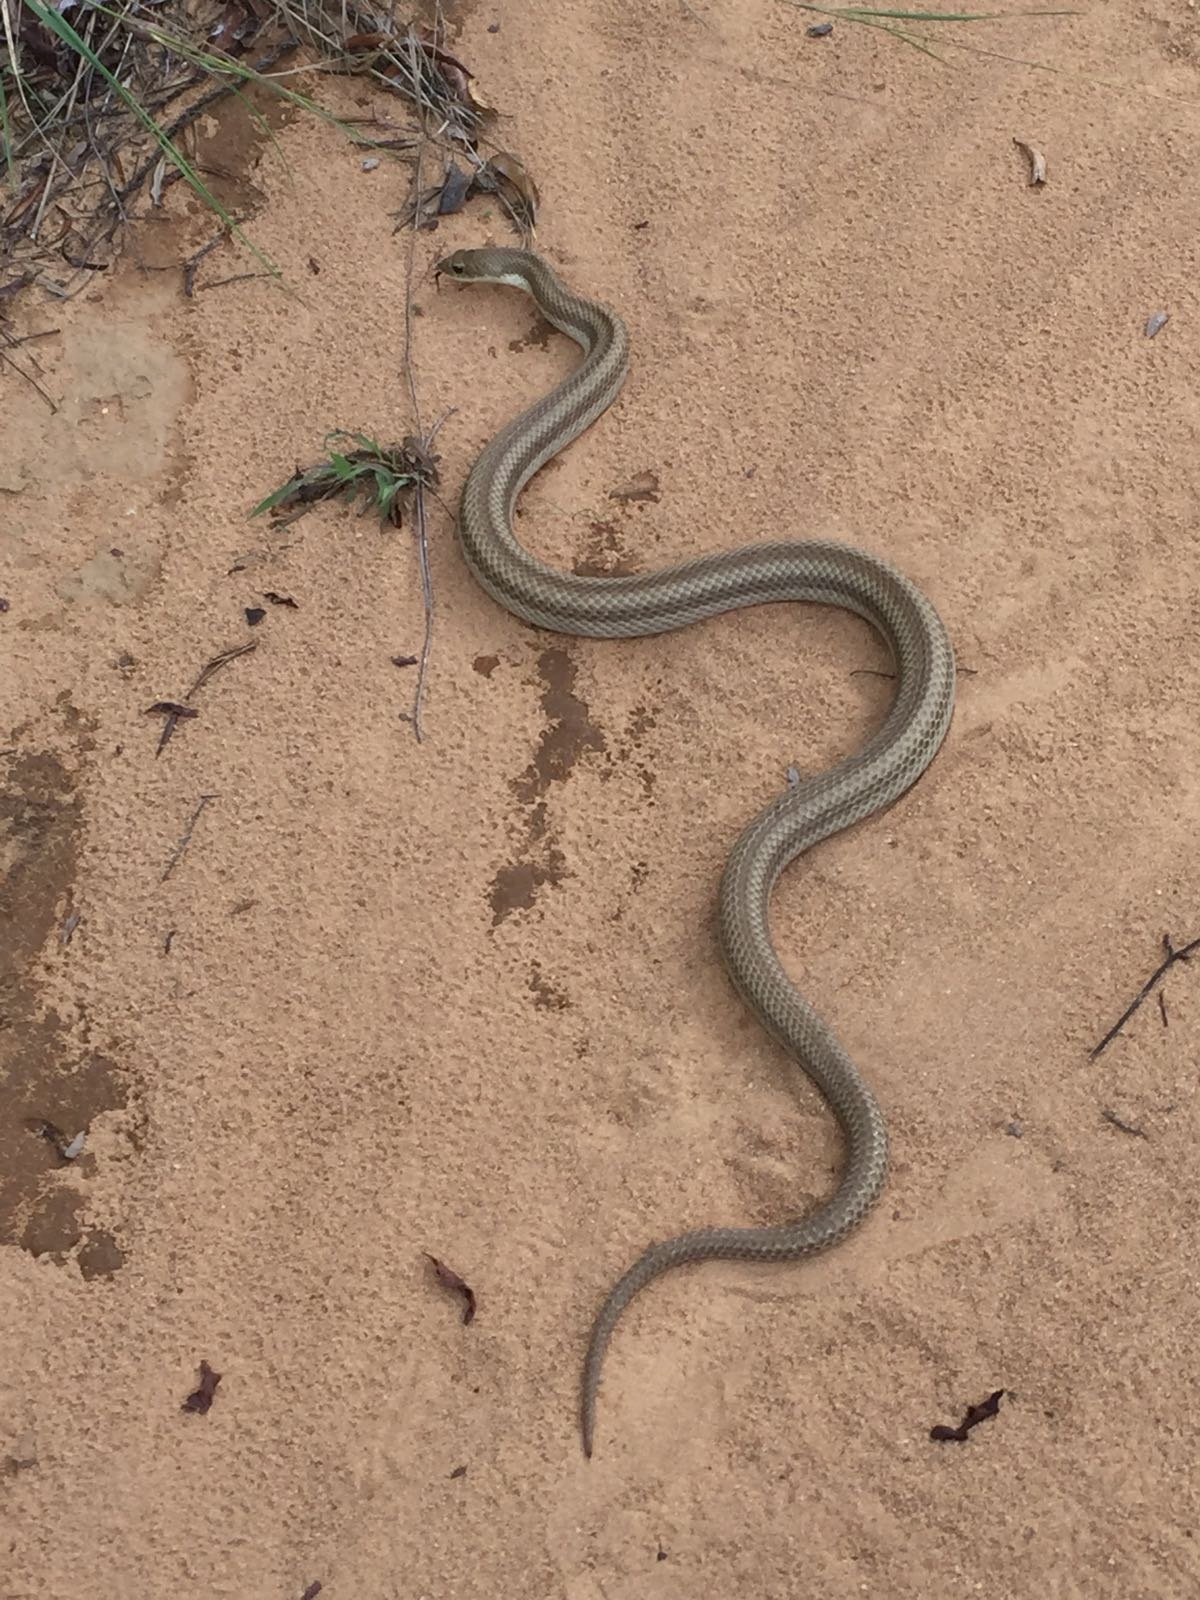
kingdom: Animalia
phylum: Chordata
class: Squamata
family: Pseudoxyrhophiidae
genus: Leioheterodon
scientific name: Leioheterodon modestus
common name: Blonde hognose snake
